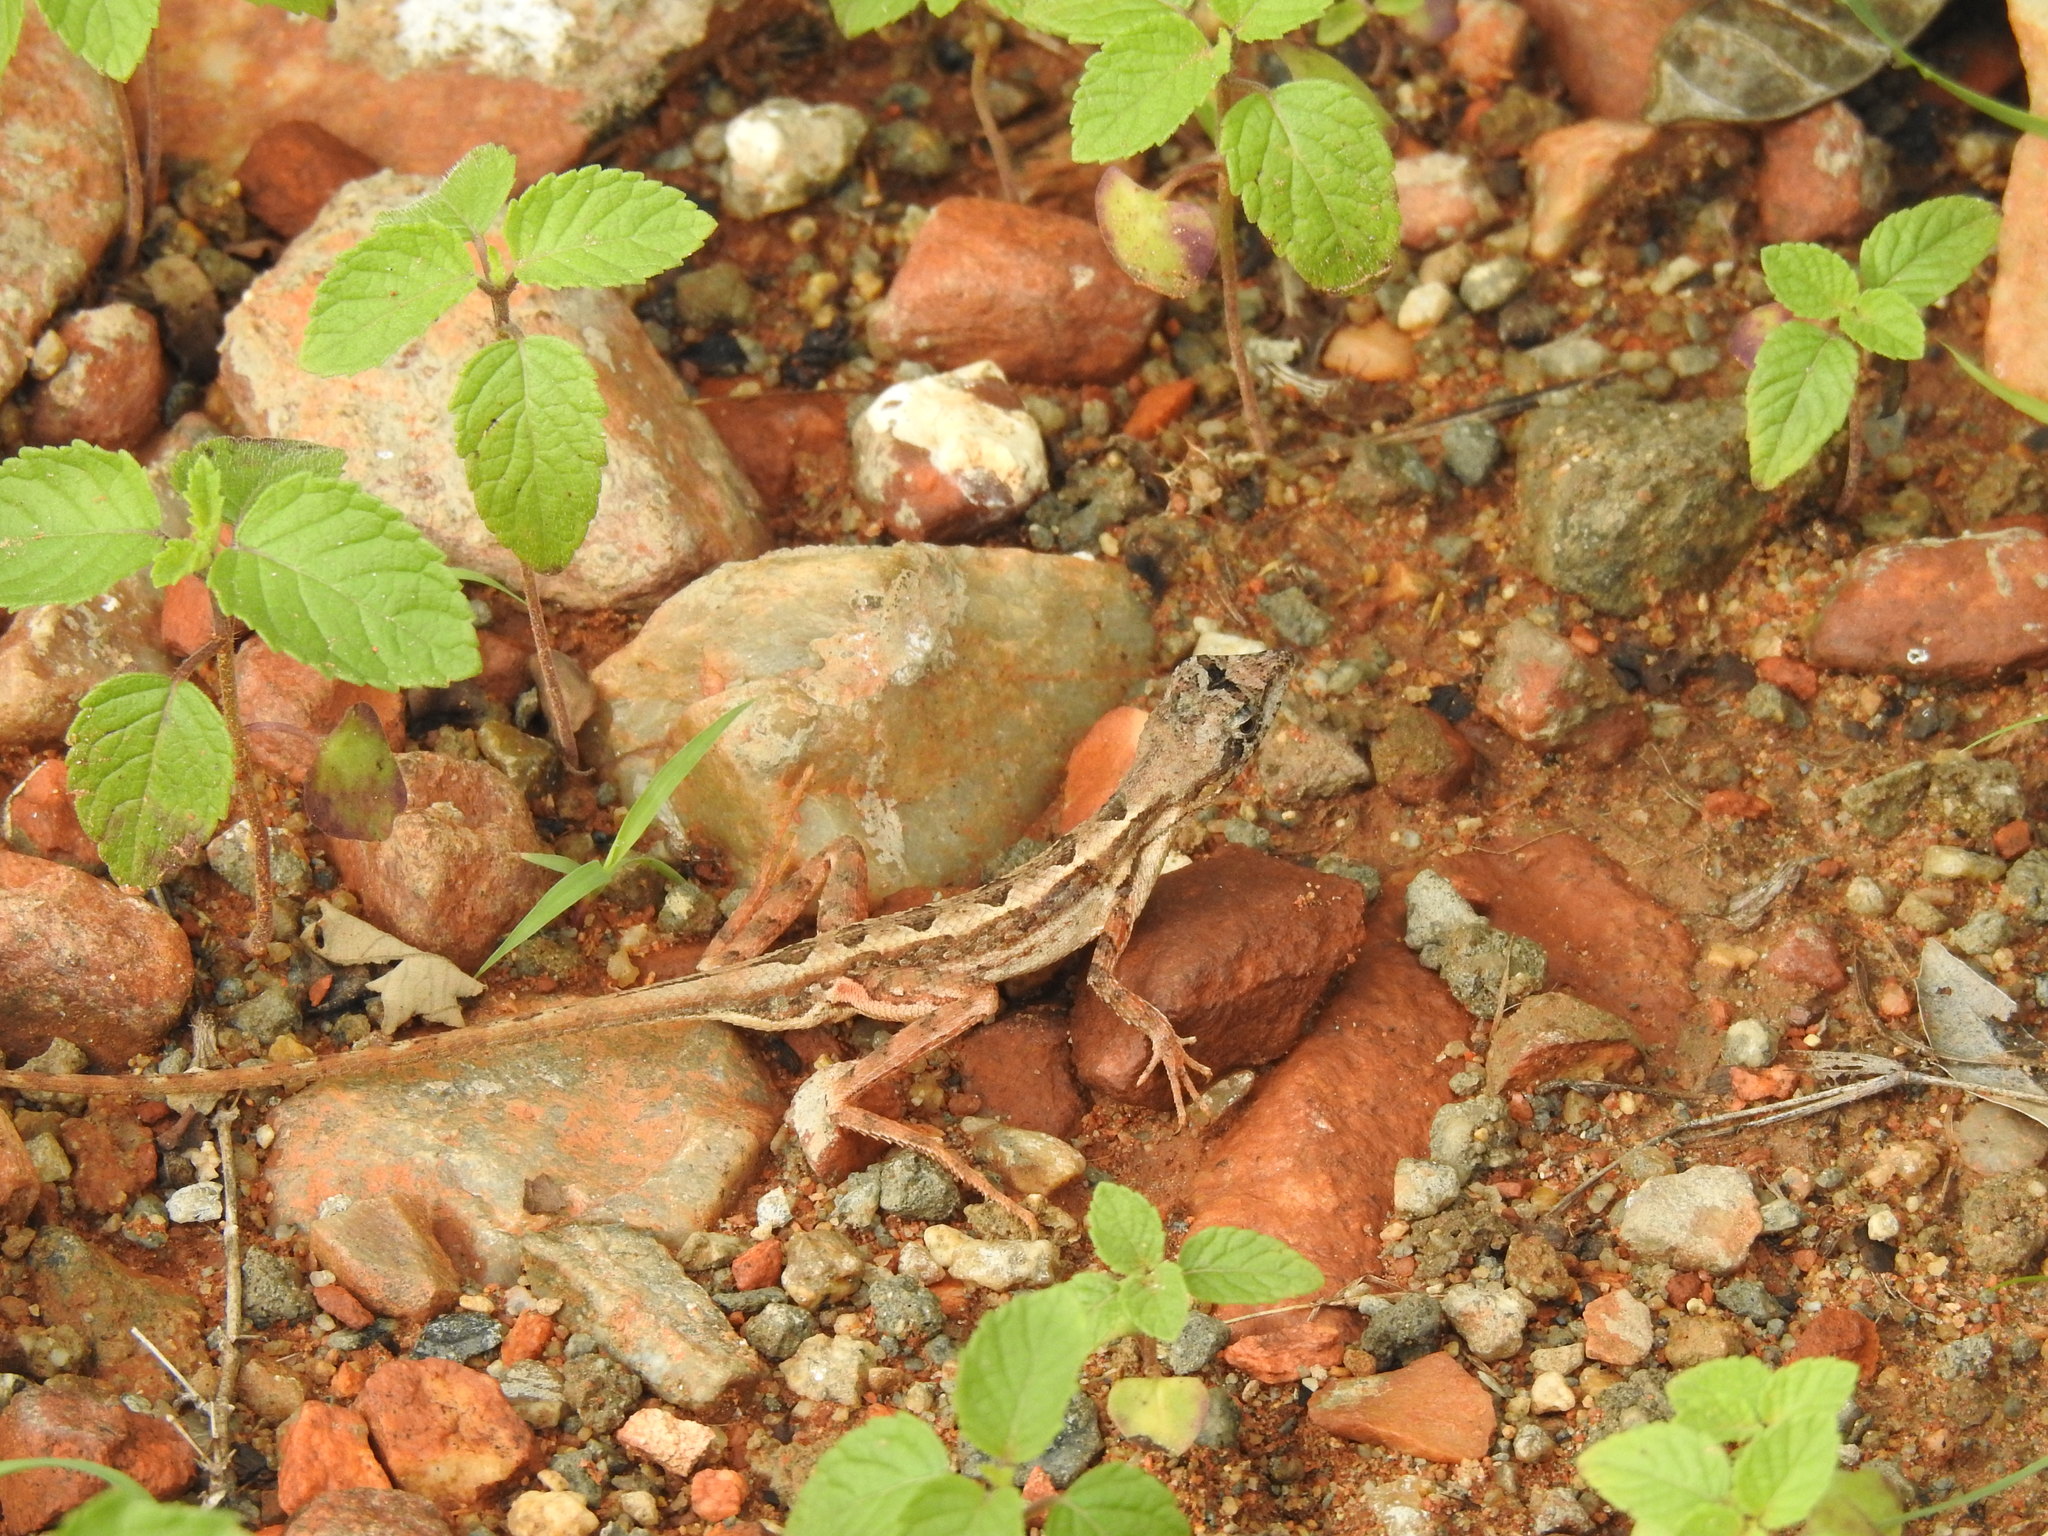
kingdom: Animalia
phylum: Chordata
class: Squamata
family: Agamidae
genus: Sitana
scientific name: Sitana ponticeriana
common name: Pondichéry fan throated lizard
